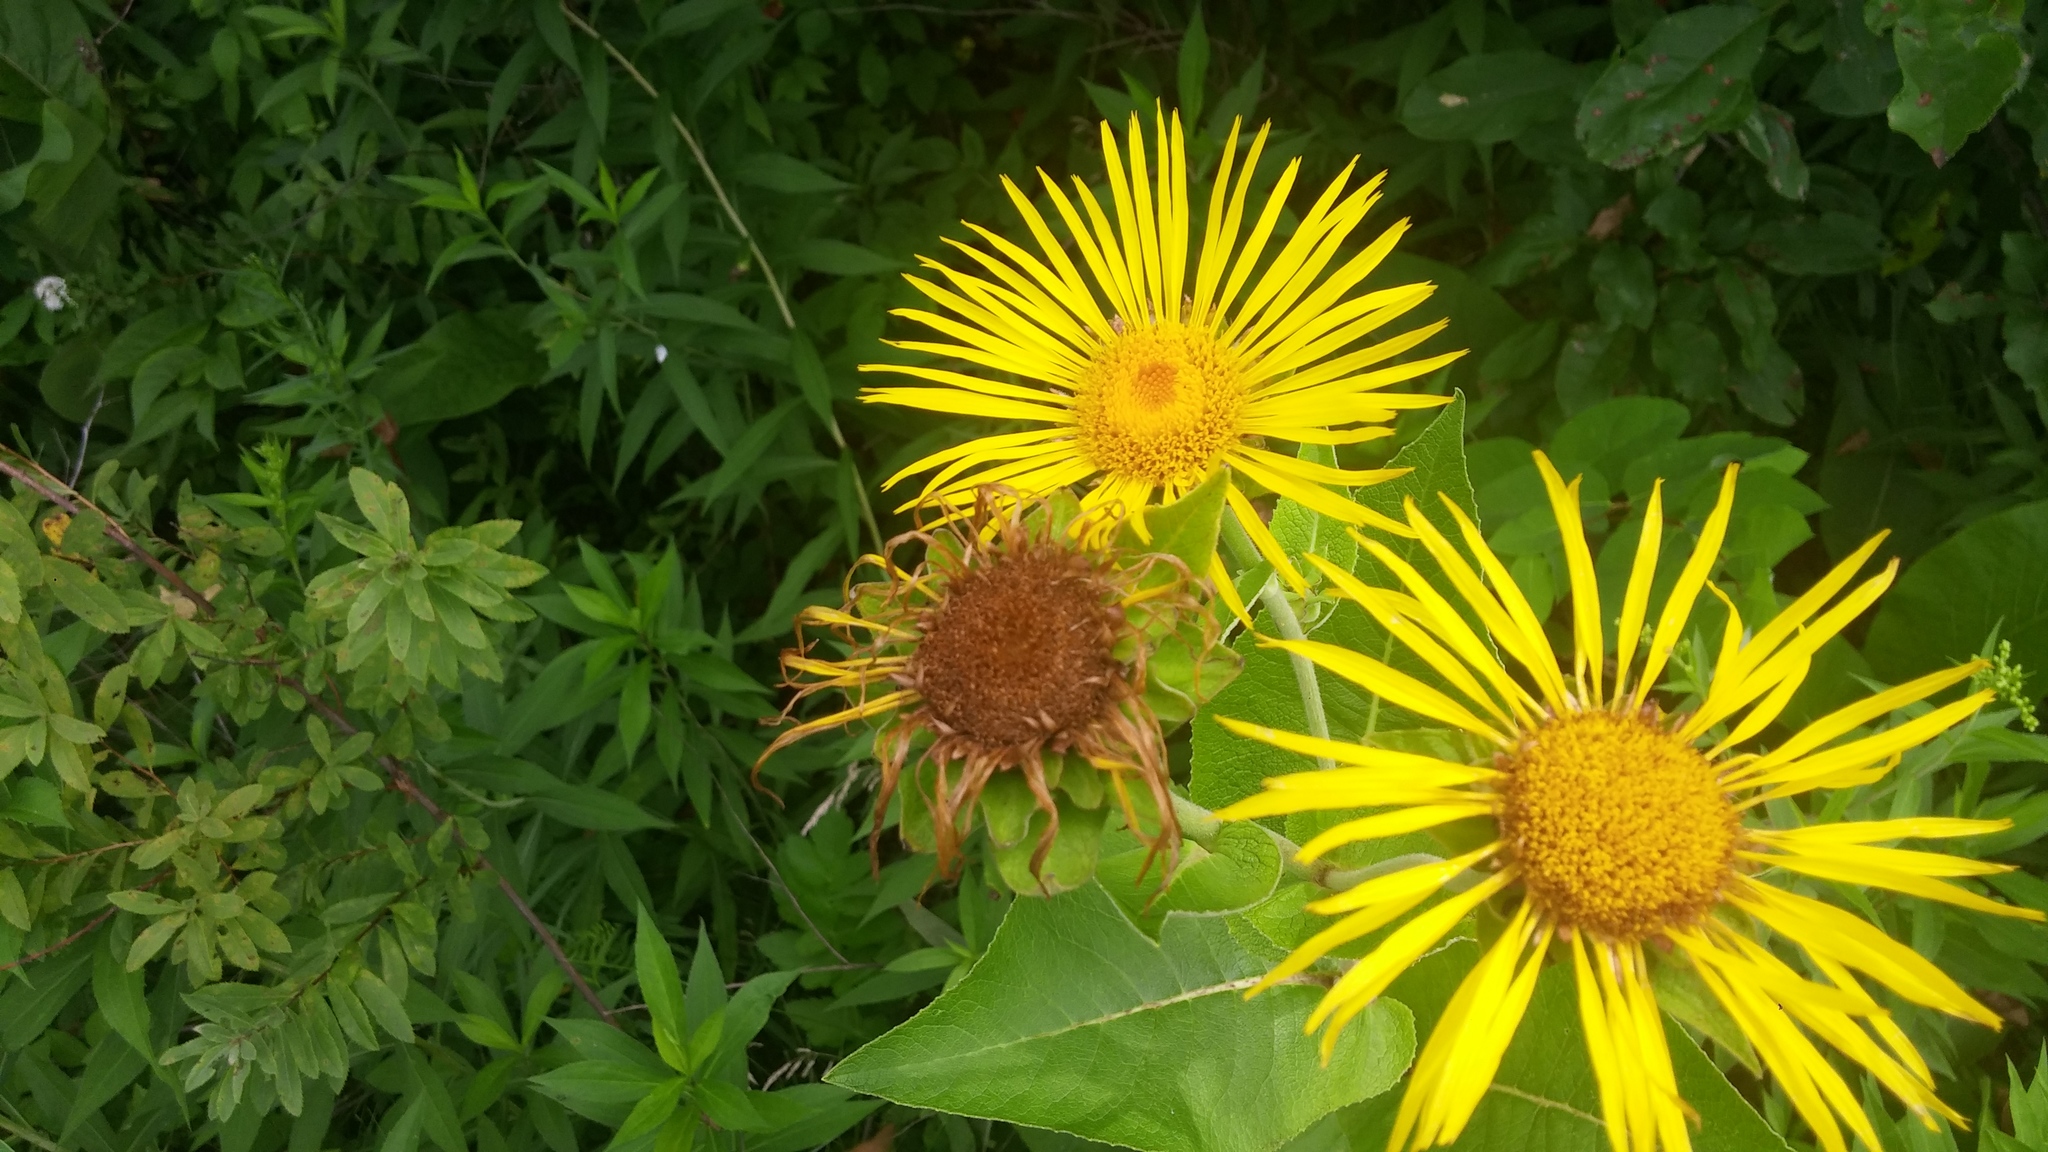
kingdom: Plantae
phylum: Tracheophyta
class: Magnoliopsida
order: Asterales
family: Asteraceae
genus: Inula
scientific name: Inula helenium
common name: Elecampane
